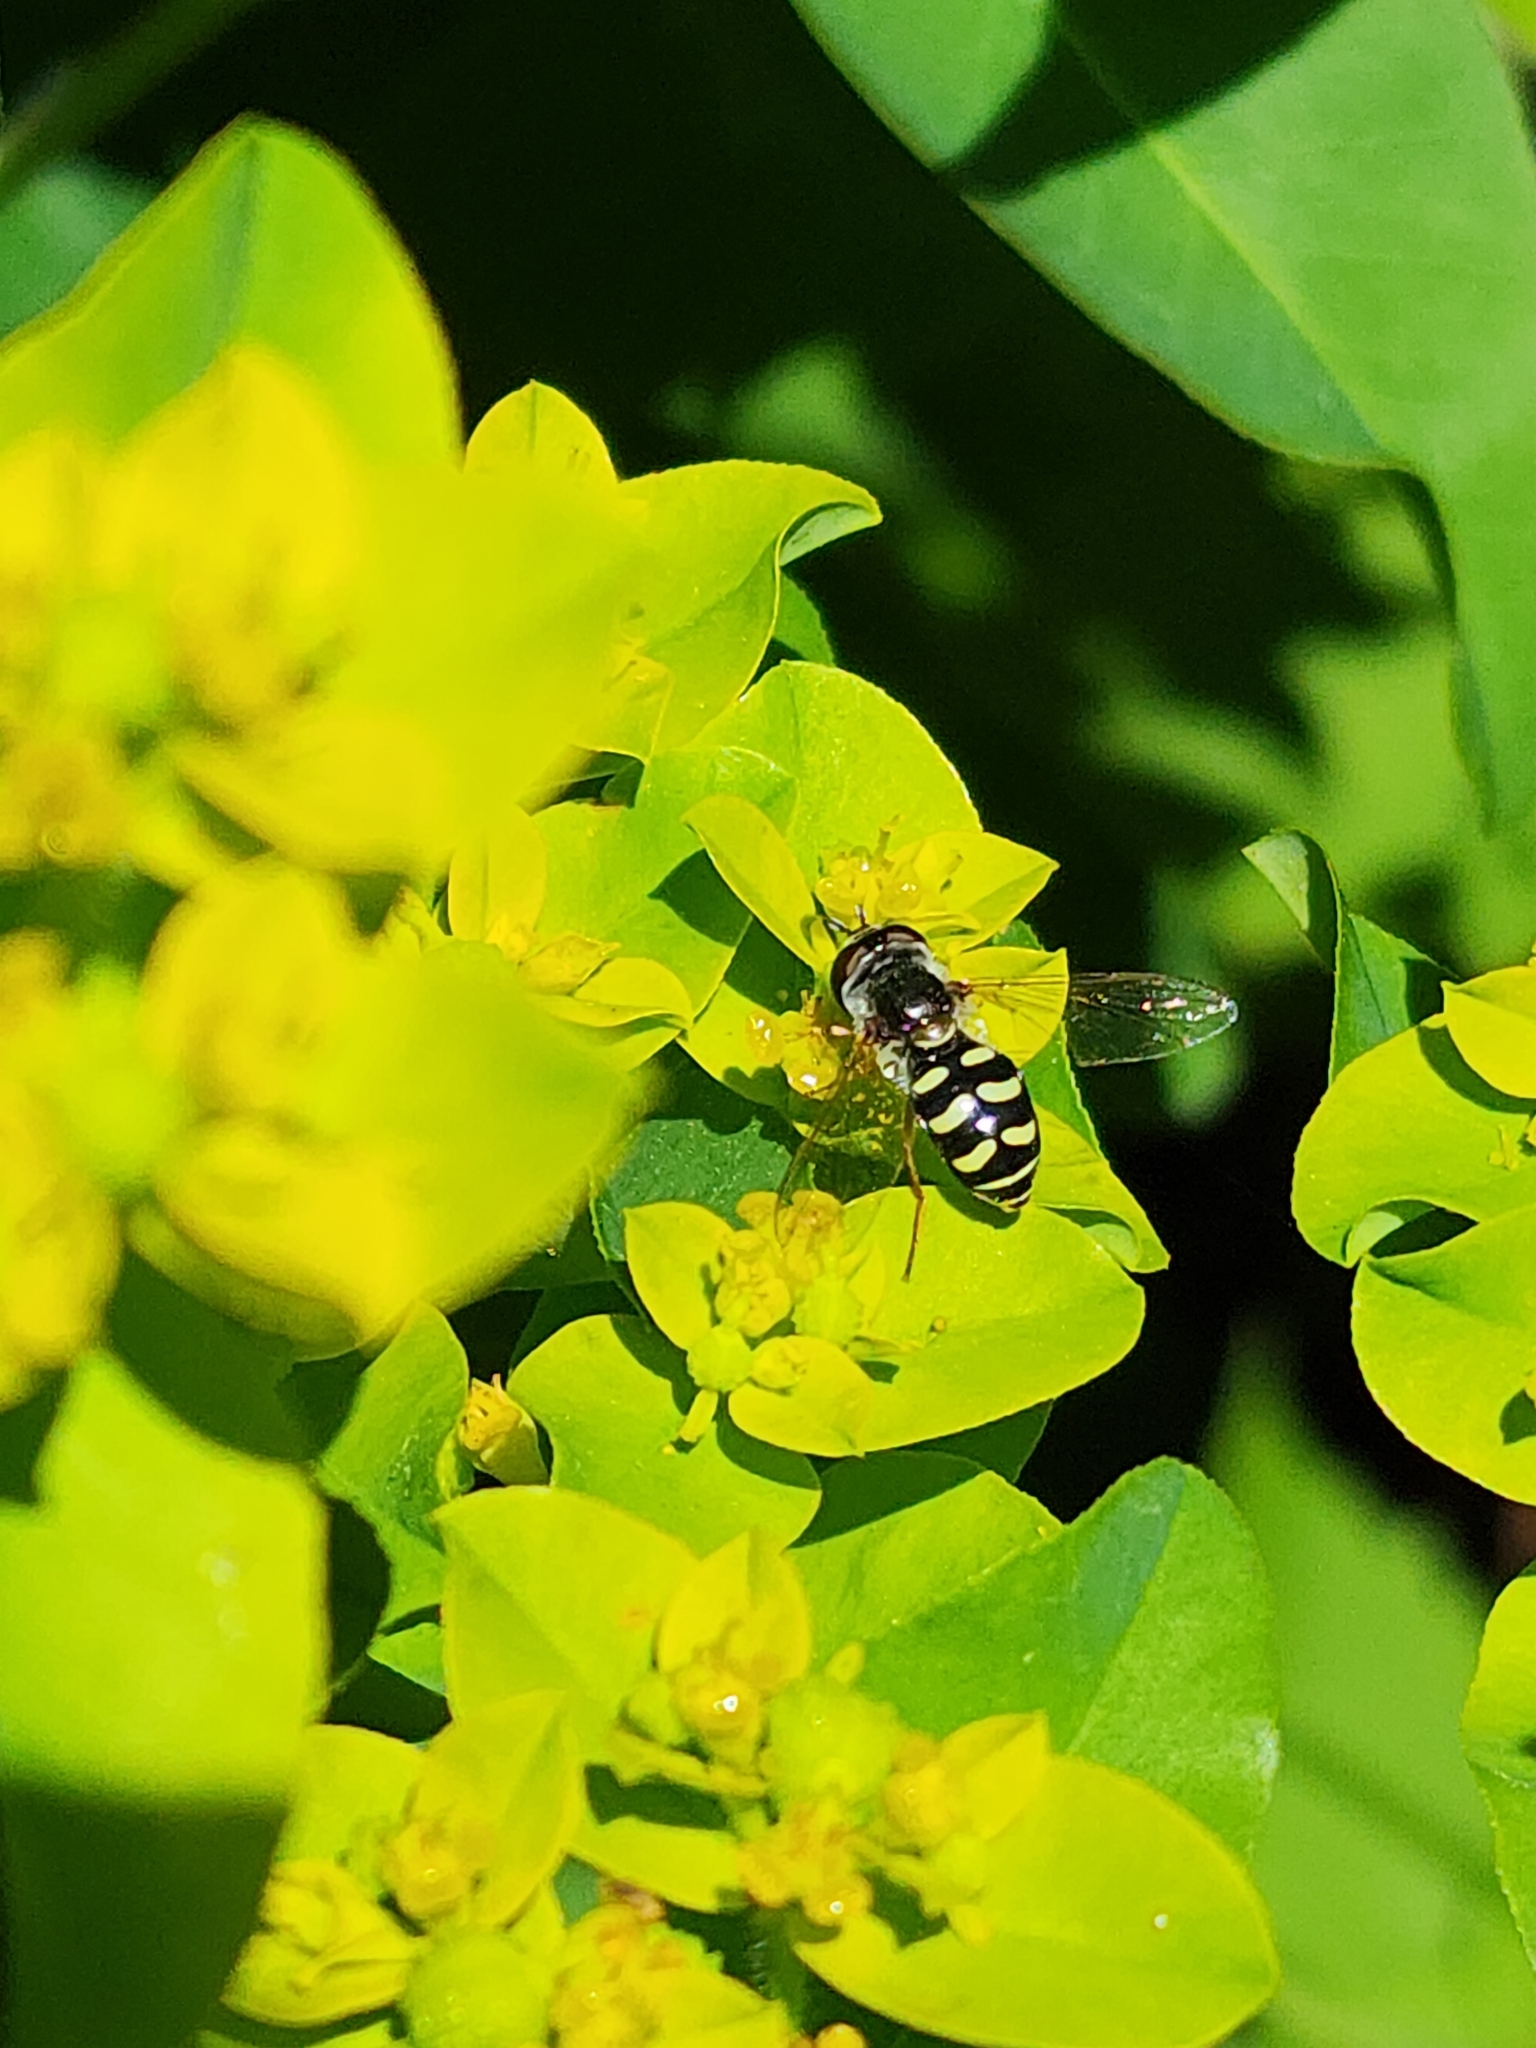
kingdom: Animalia
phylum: Arthropoda
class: Insecta
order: Diptera
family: Syrphidae
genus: Eupeodes
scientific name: Eupeodes volucris
